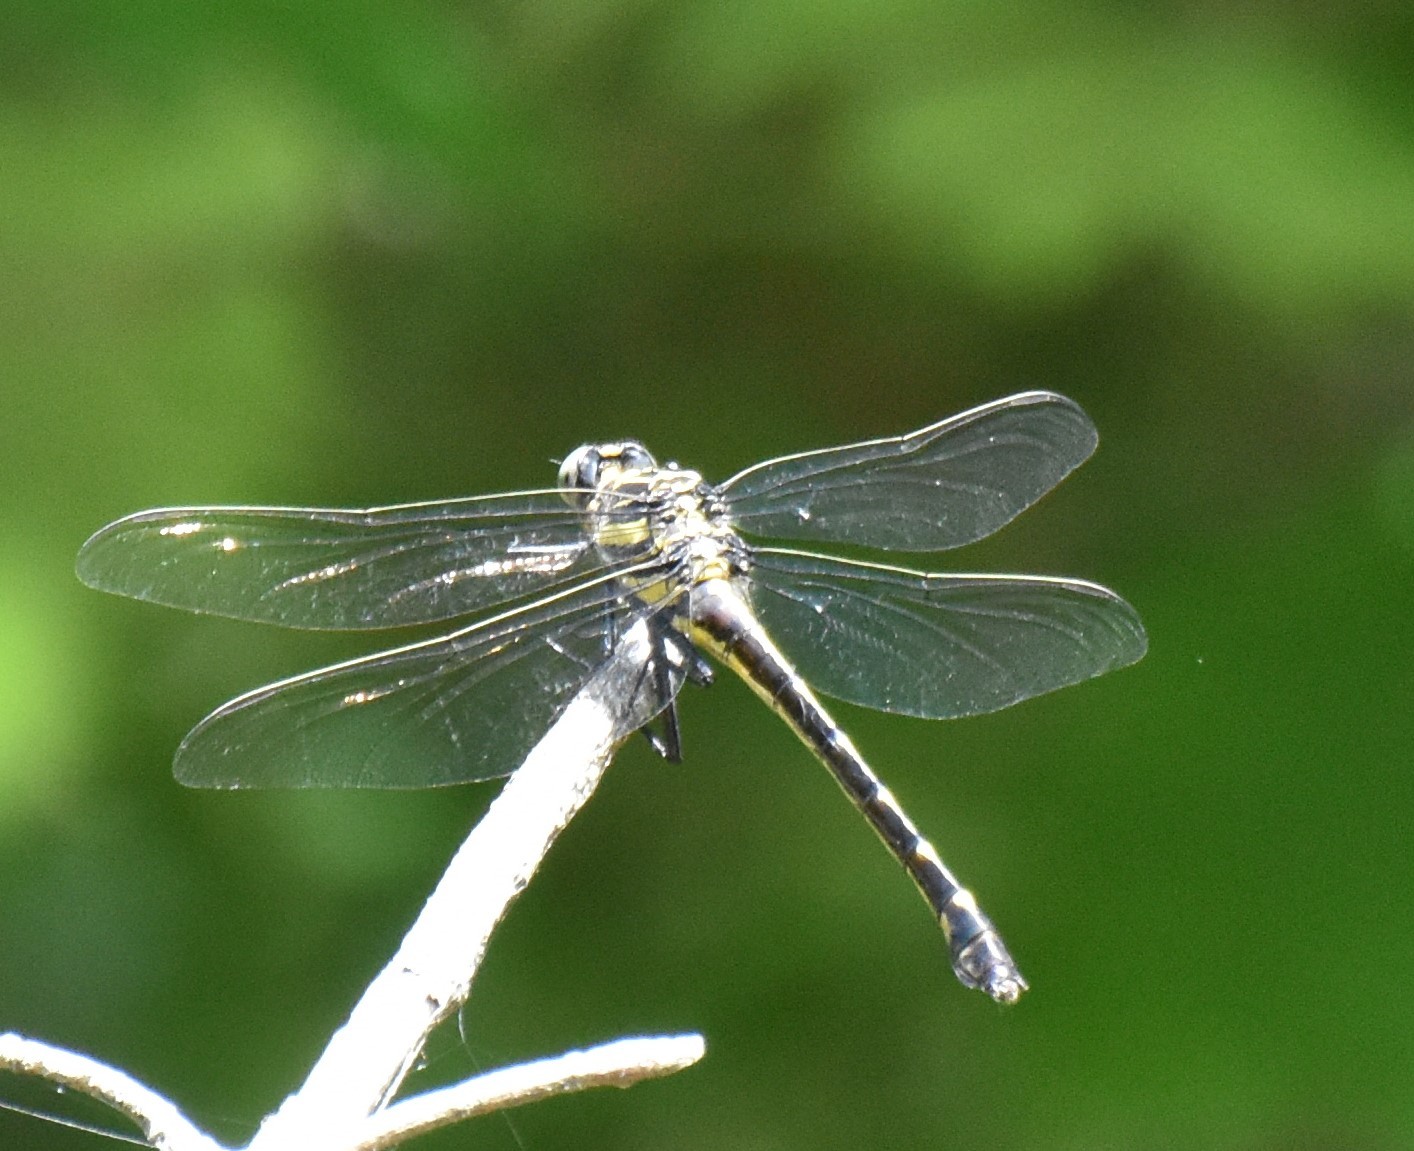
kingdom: Animalia
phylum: Arthropoda
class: Insecta
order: Odonata
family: Gomphidae
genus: Hagenius
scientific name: Hagenius brevistylus
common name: Dragonhunter
